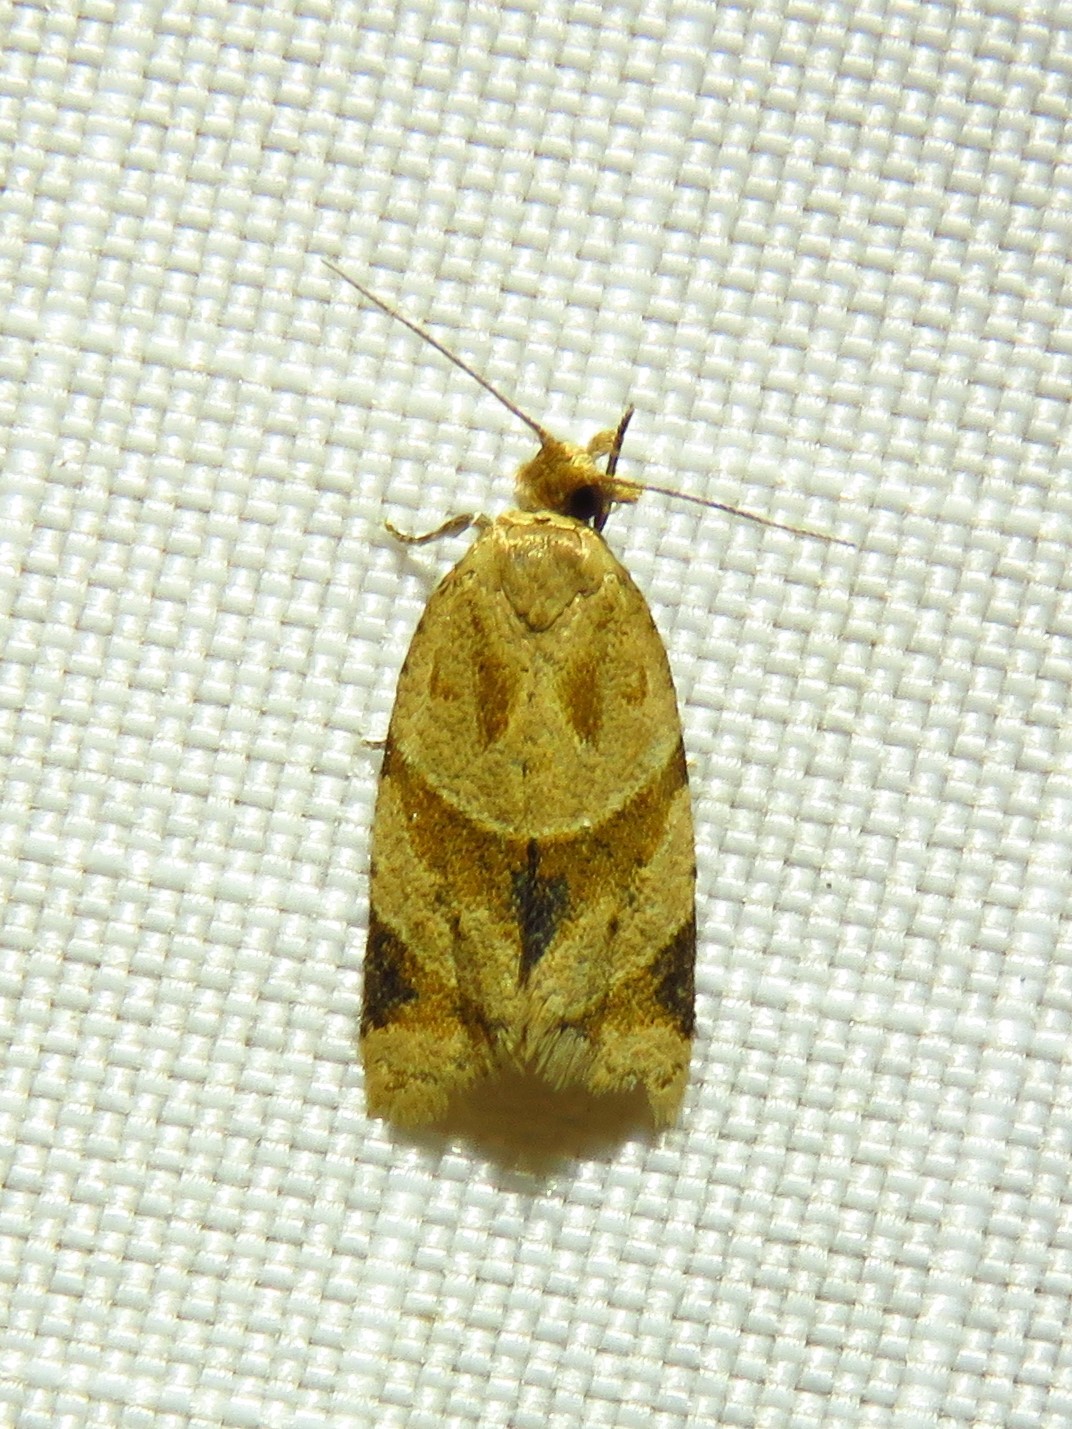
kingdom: Animalia
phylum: Arthropoda
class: Insecta
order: Lepidoptera
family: Tortricidae
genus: Clepsis
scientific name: Clepsis peritana
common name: Garden tortrix
